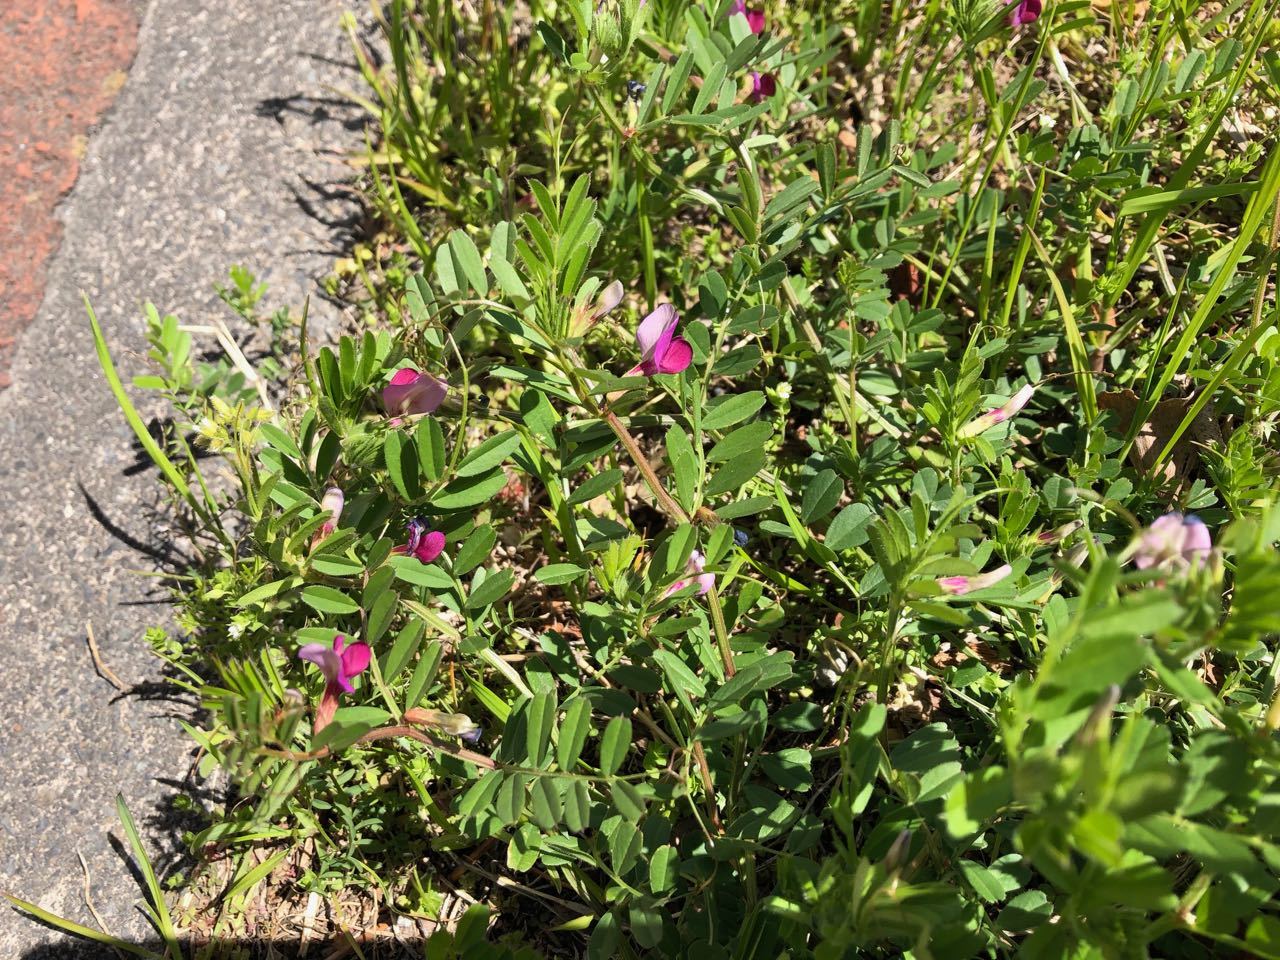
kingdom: Plantae
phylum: Tracheophyta
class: Magnoliopsida
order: Fabales
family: Fabaceae
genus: Vicia
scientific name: Vicia sativa
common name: Garden vetch
